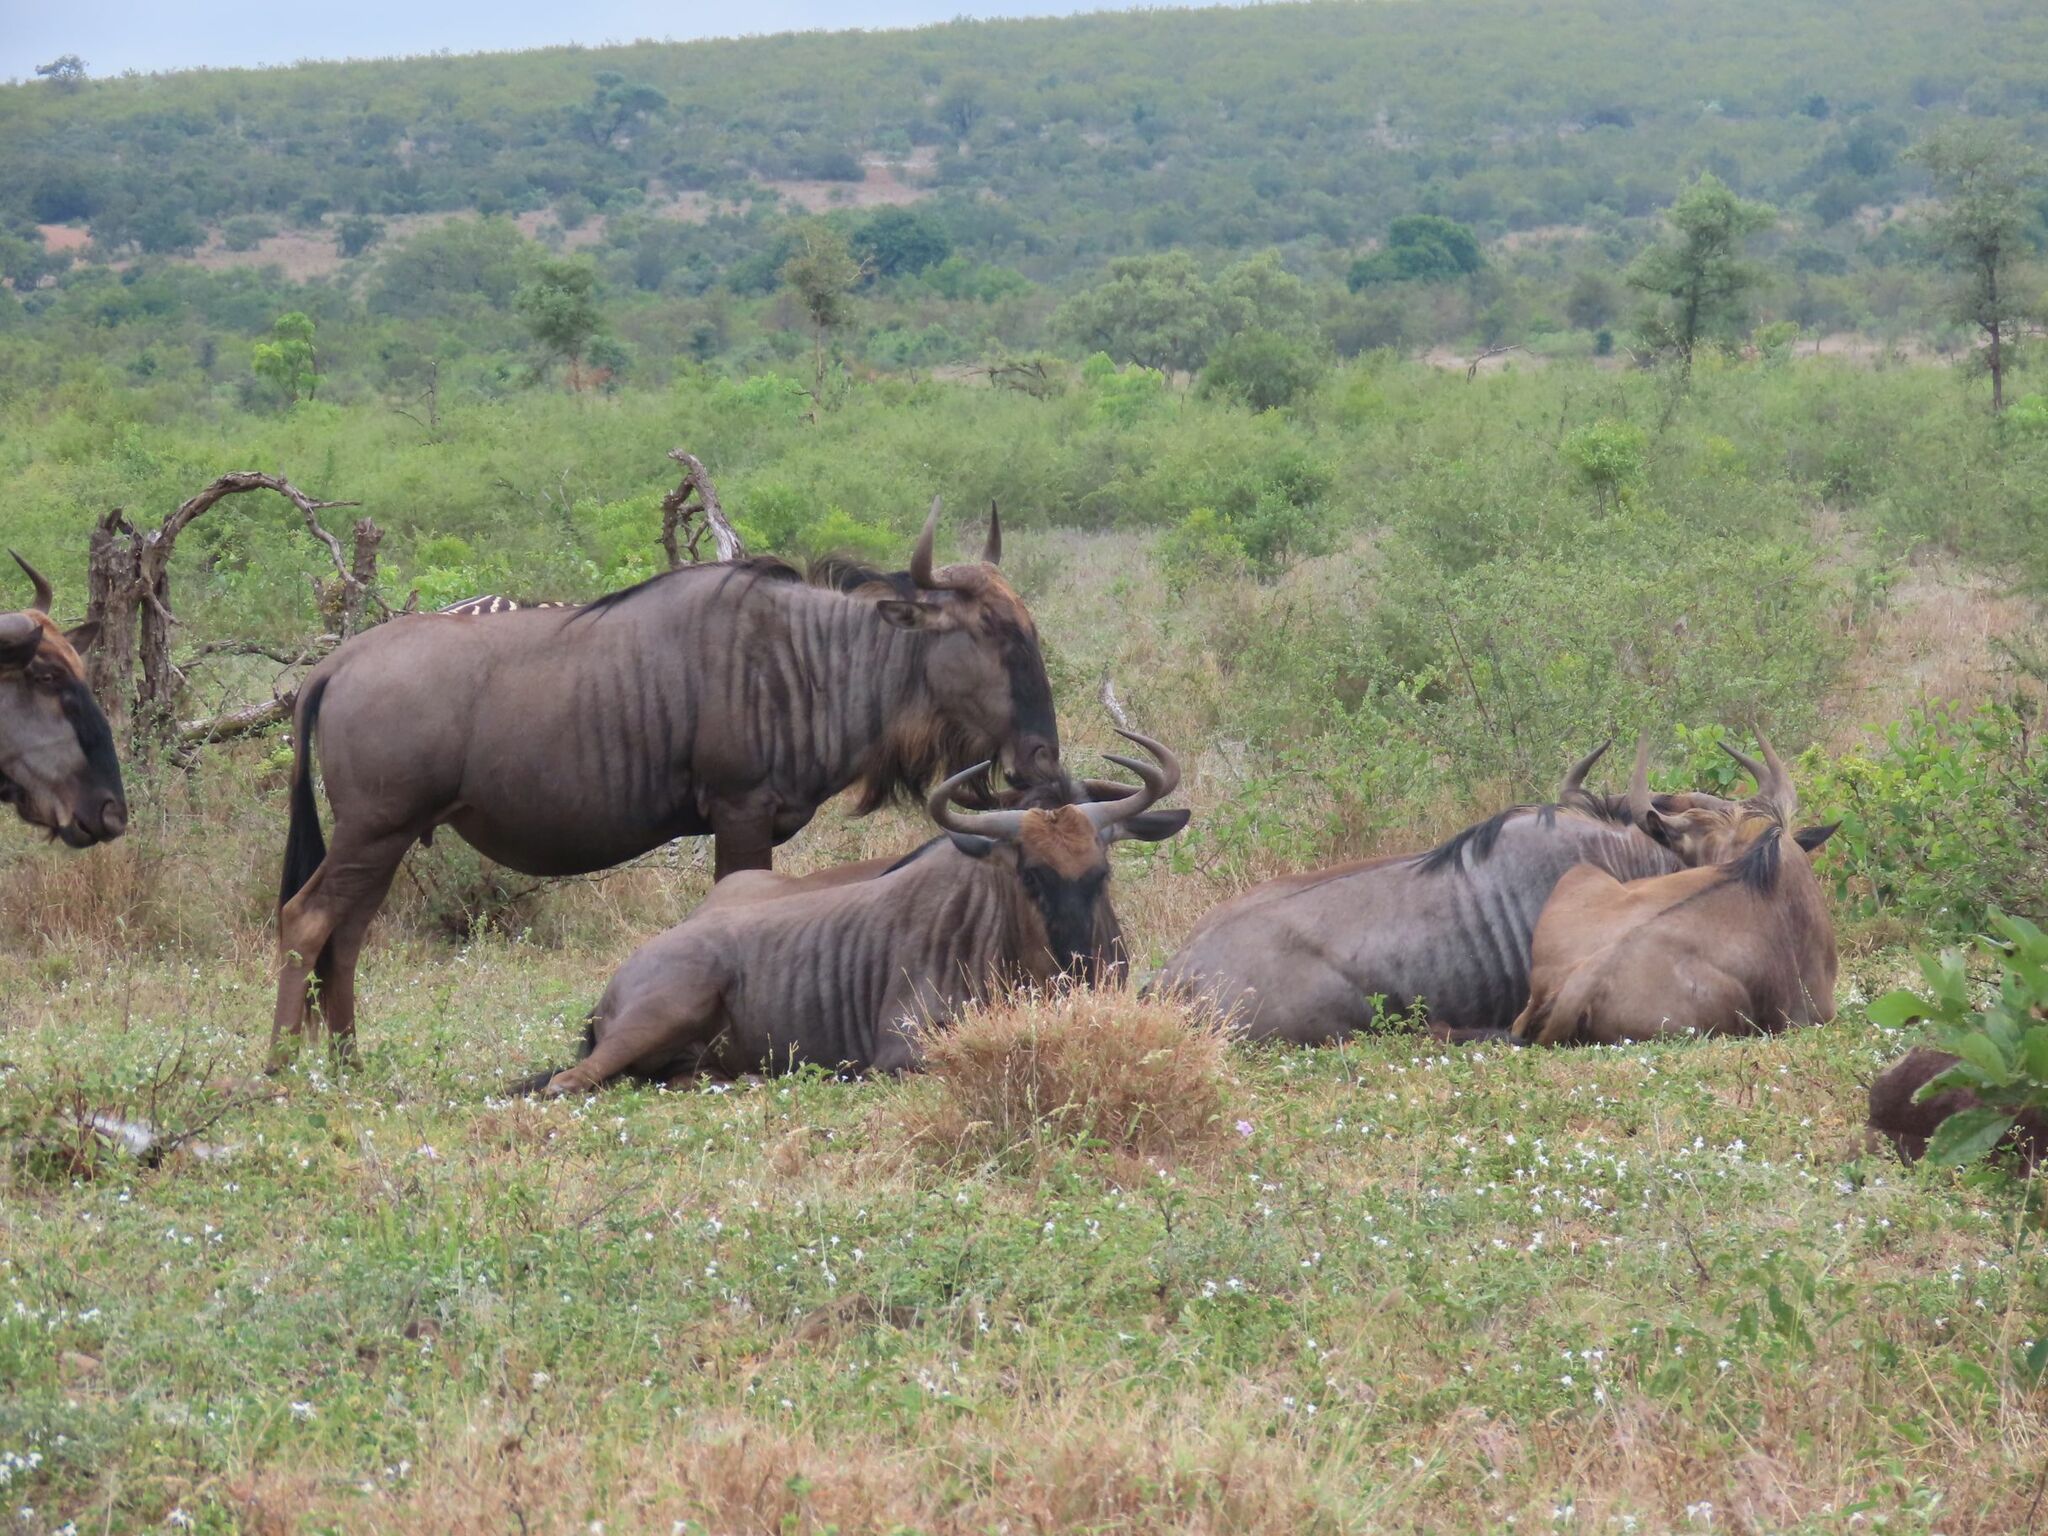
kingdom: Animalia
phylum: Chordata
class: Mammalia
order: Artiodactyla
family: Bovidae
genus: Connochaetes
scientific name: Connochaetes taurinus
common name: Blue wildebeest
